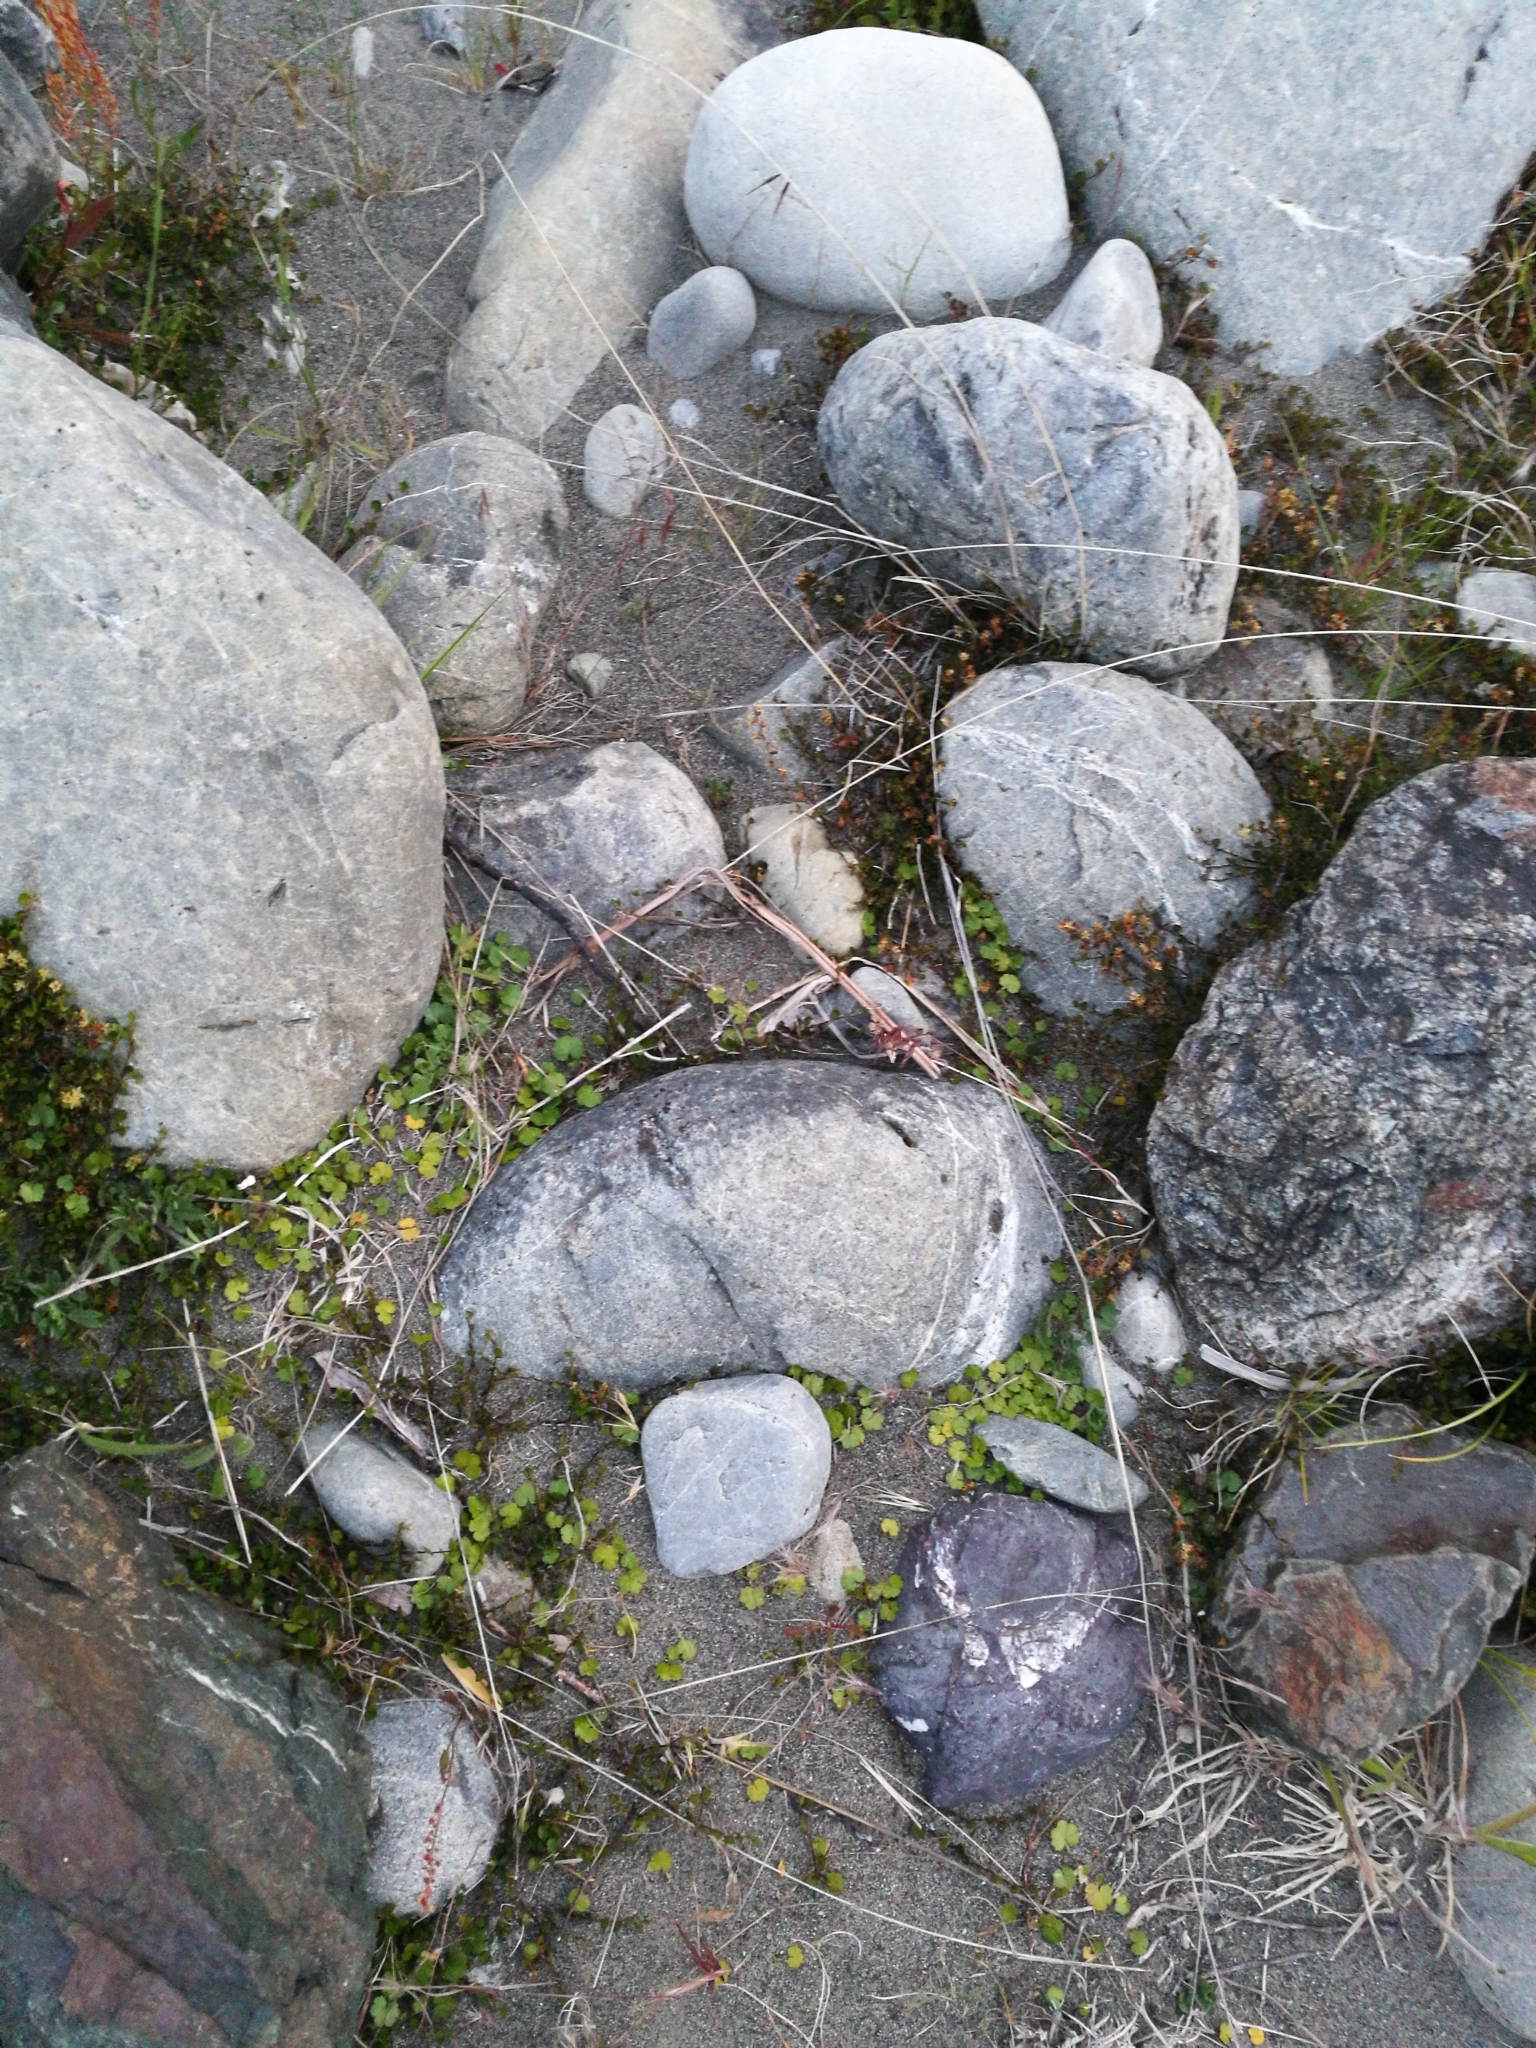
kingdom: Plantae
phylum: Tracheophyta
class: Magnoliopsida
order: Apiales
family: Araliaceae
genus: Hydrocotyle
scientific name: Hydrocotyle novae-zeelandiae
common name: New zealand pennywort
